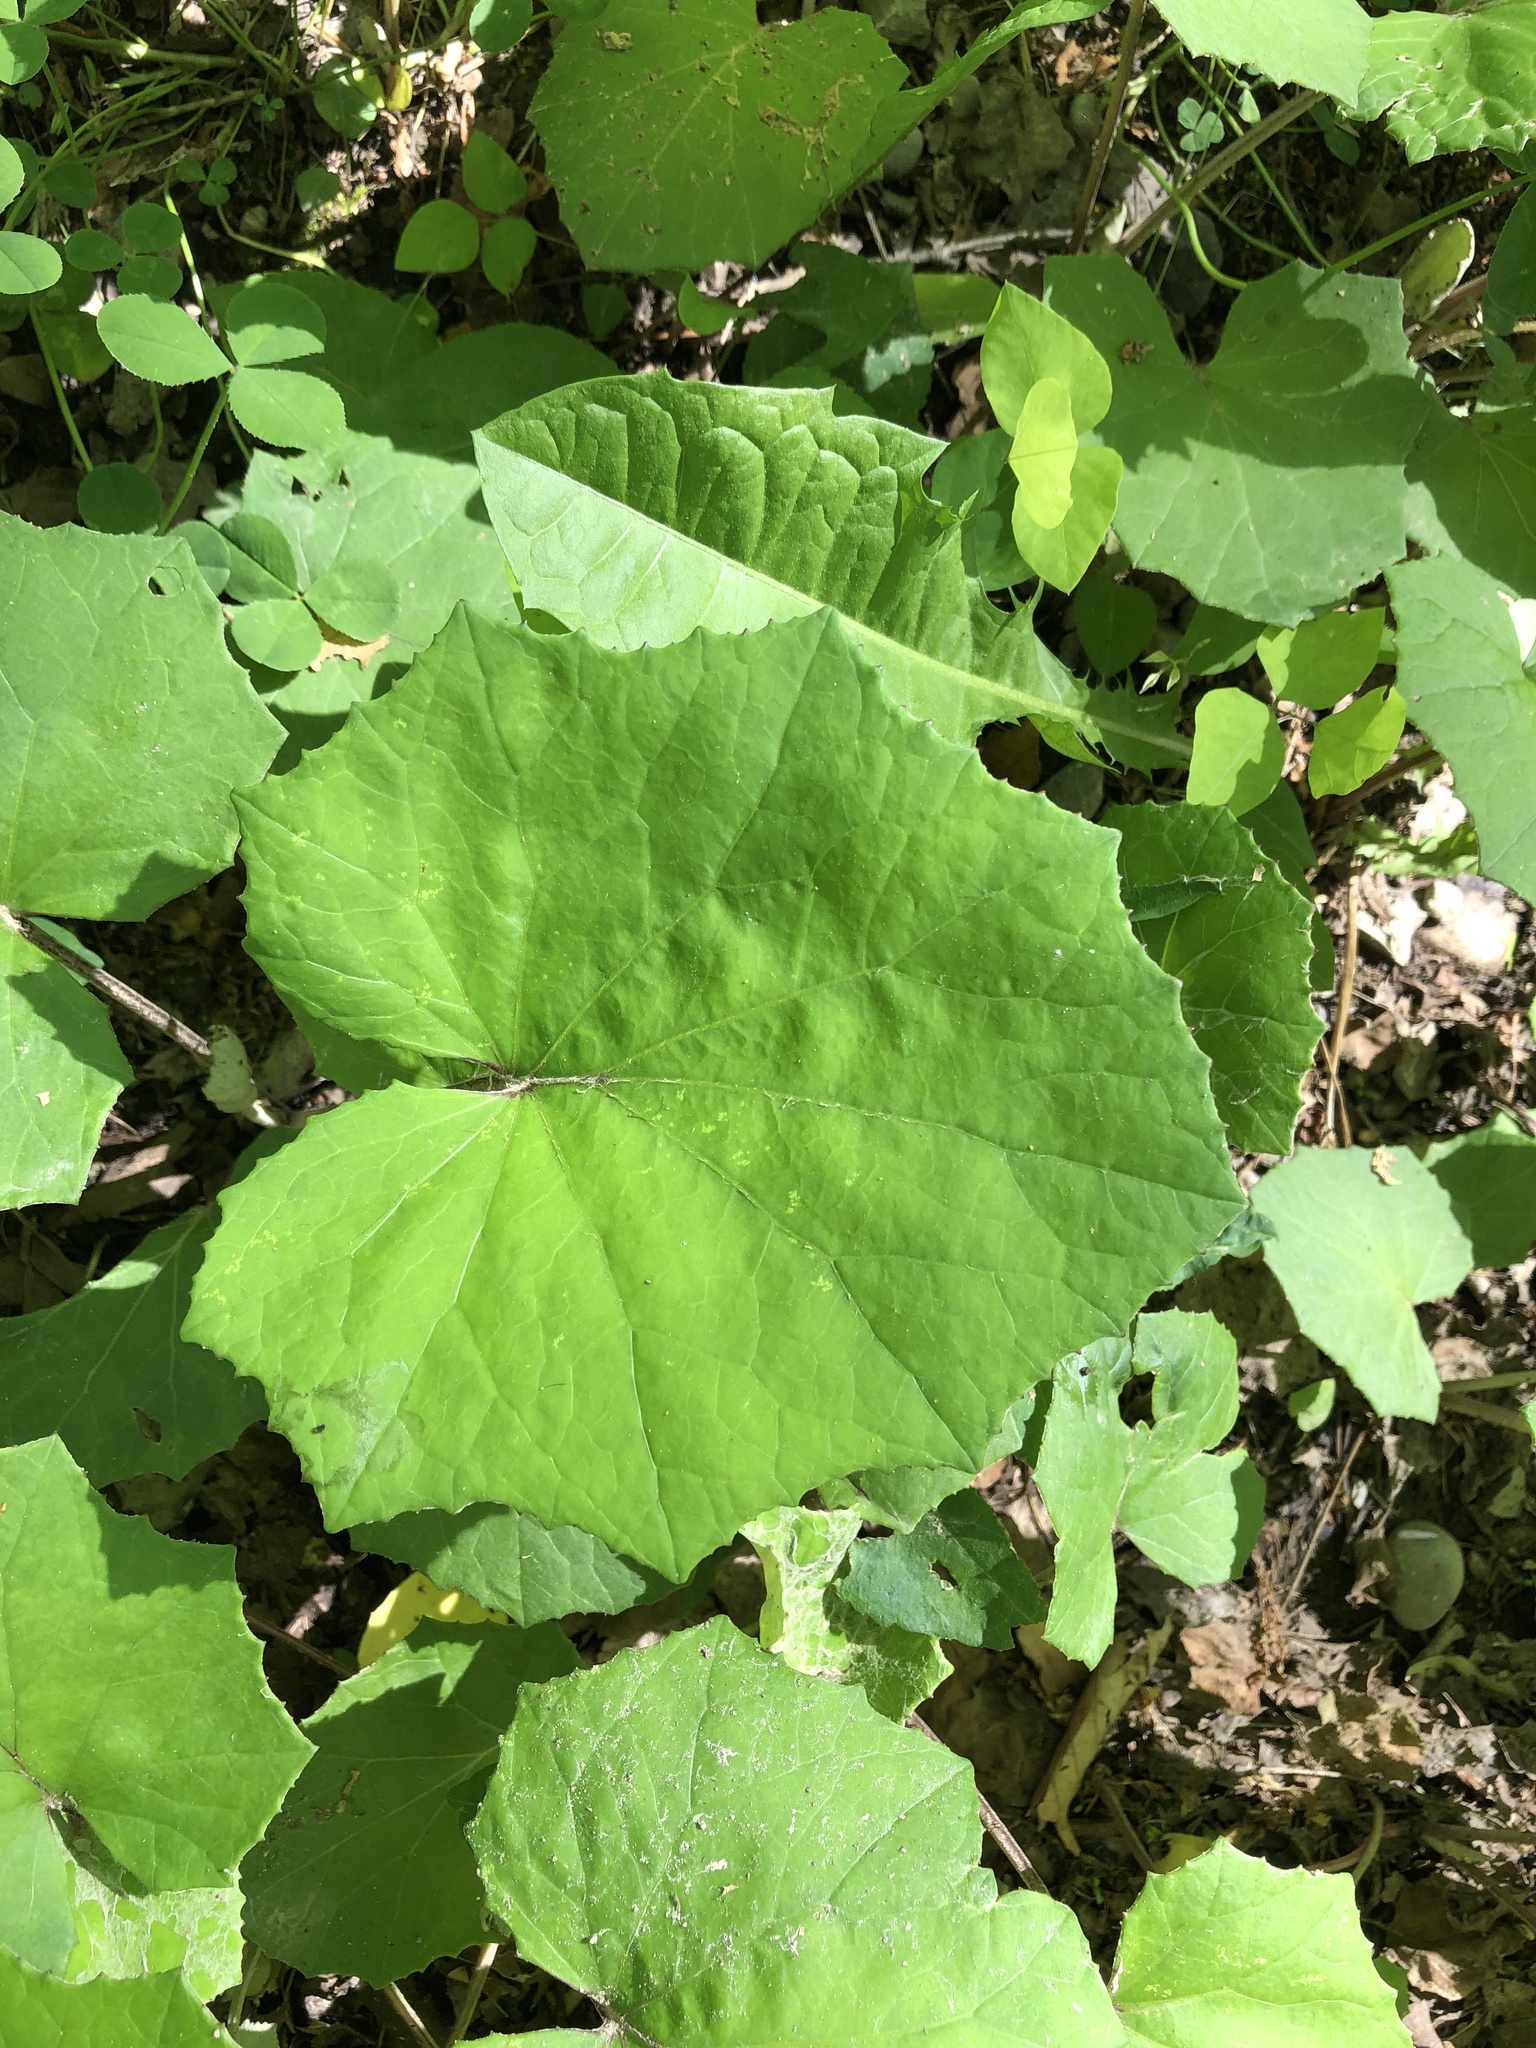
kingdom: Plantae
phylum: Tracheophyta
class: Magnoliopsida
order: Asterales
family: Asteraceae
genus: Tussilago
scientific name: Tussilago farfara
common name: Coltsfoot
